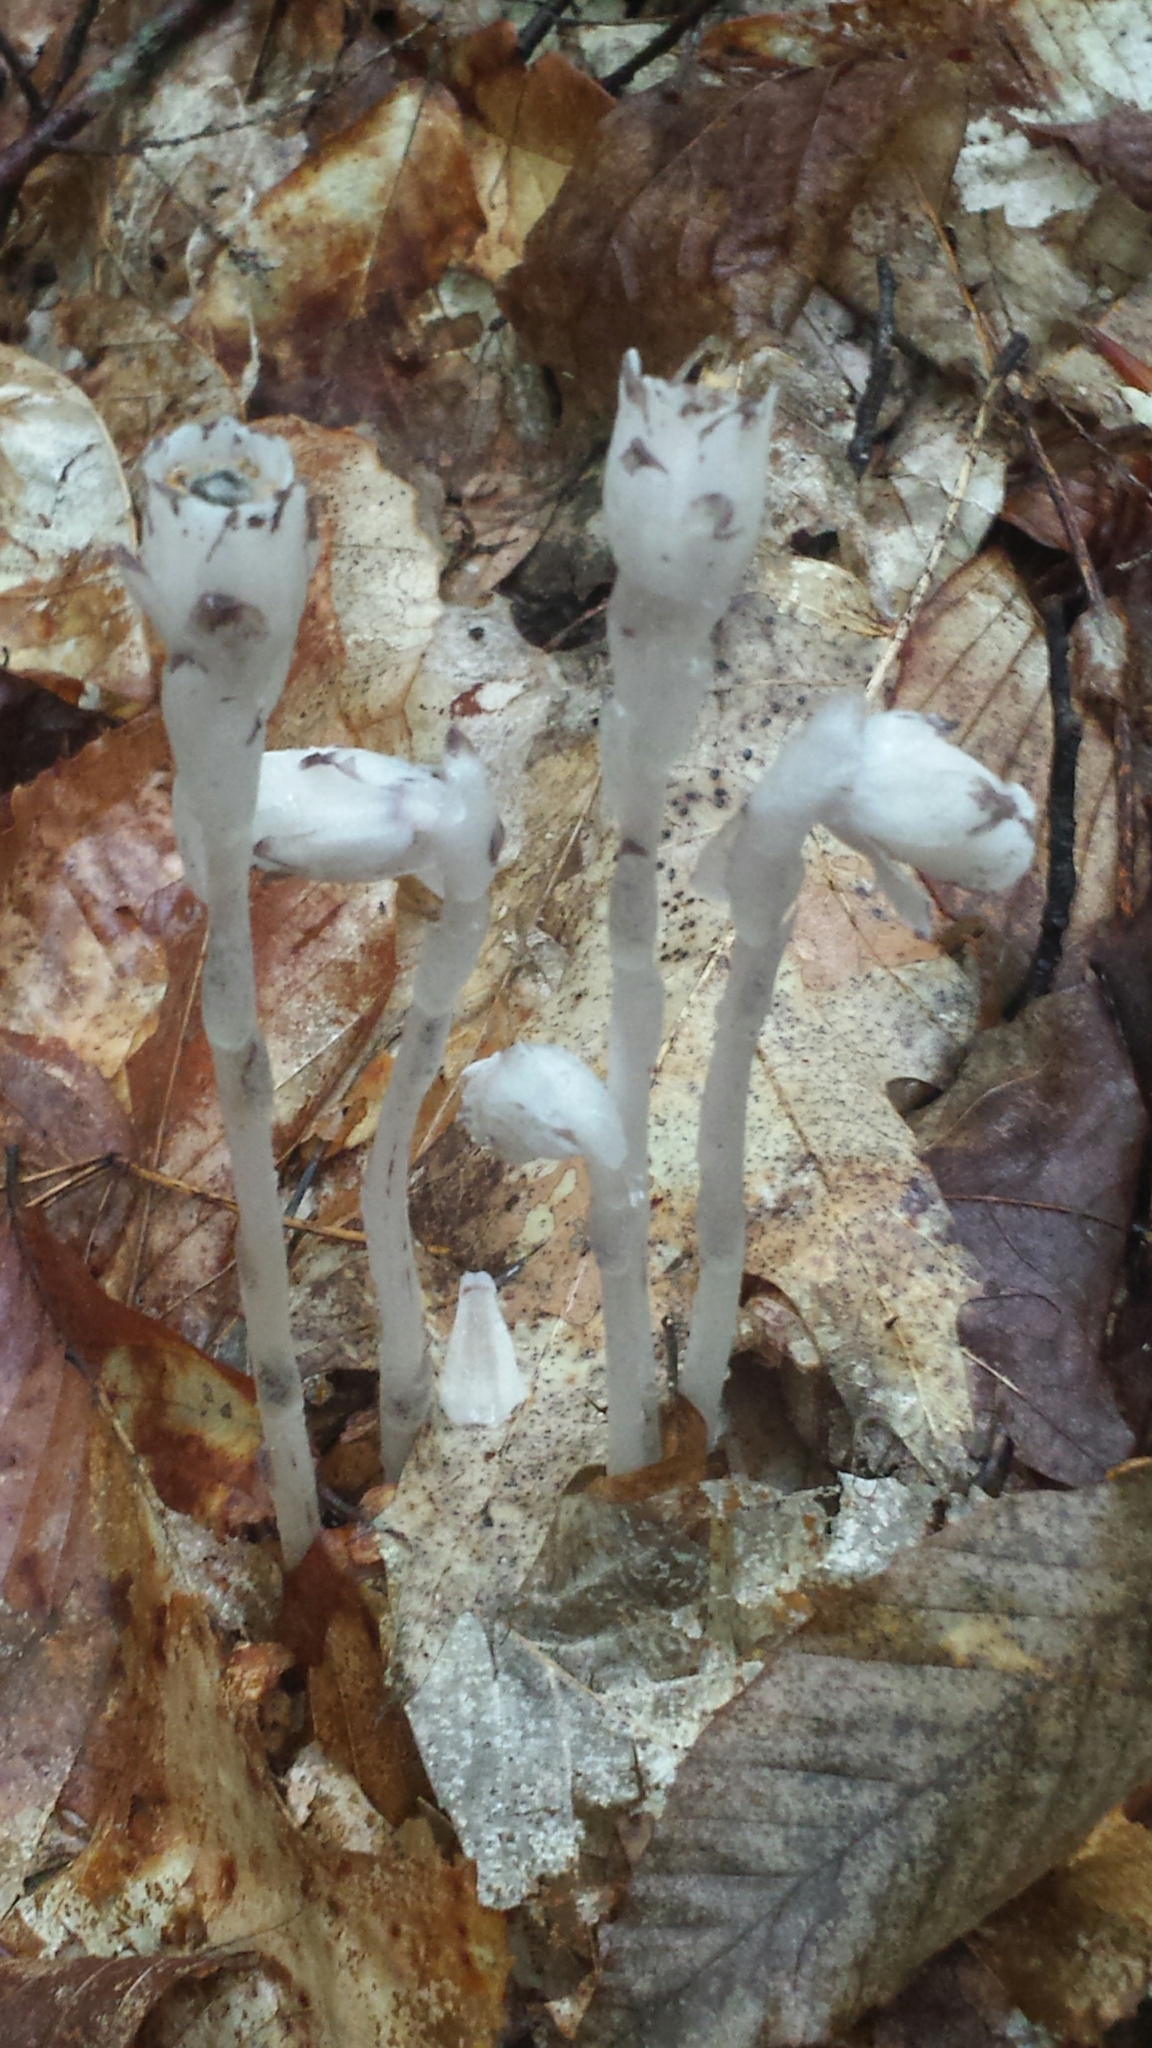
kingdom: Plantae
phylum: Tracheophyta
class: Magnoliopsida
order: Ericales
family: Ericaceae
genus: Monotropa
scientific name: Monotropa uniflora
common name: Convulsion root
